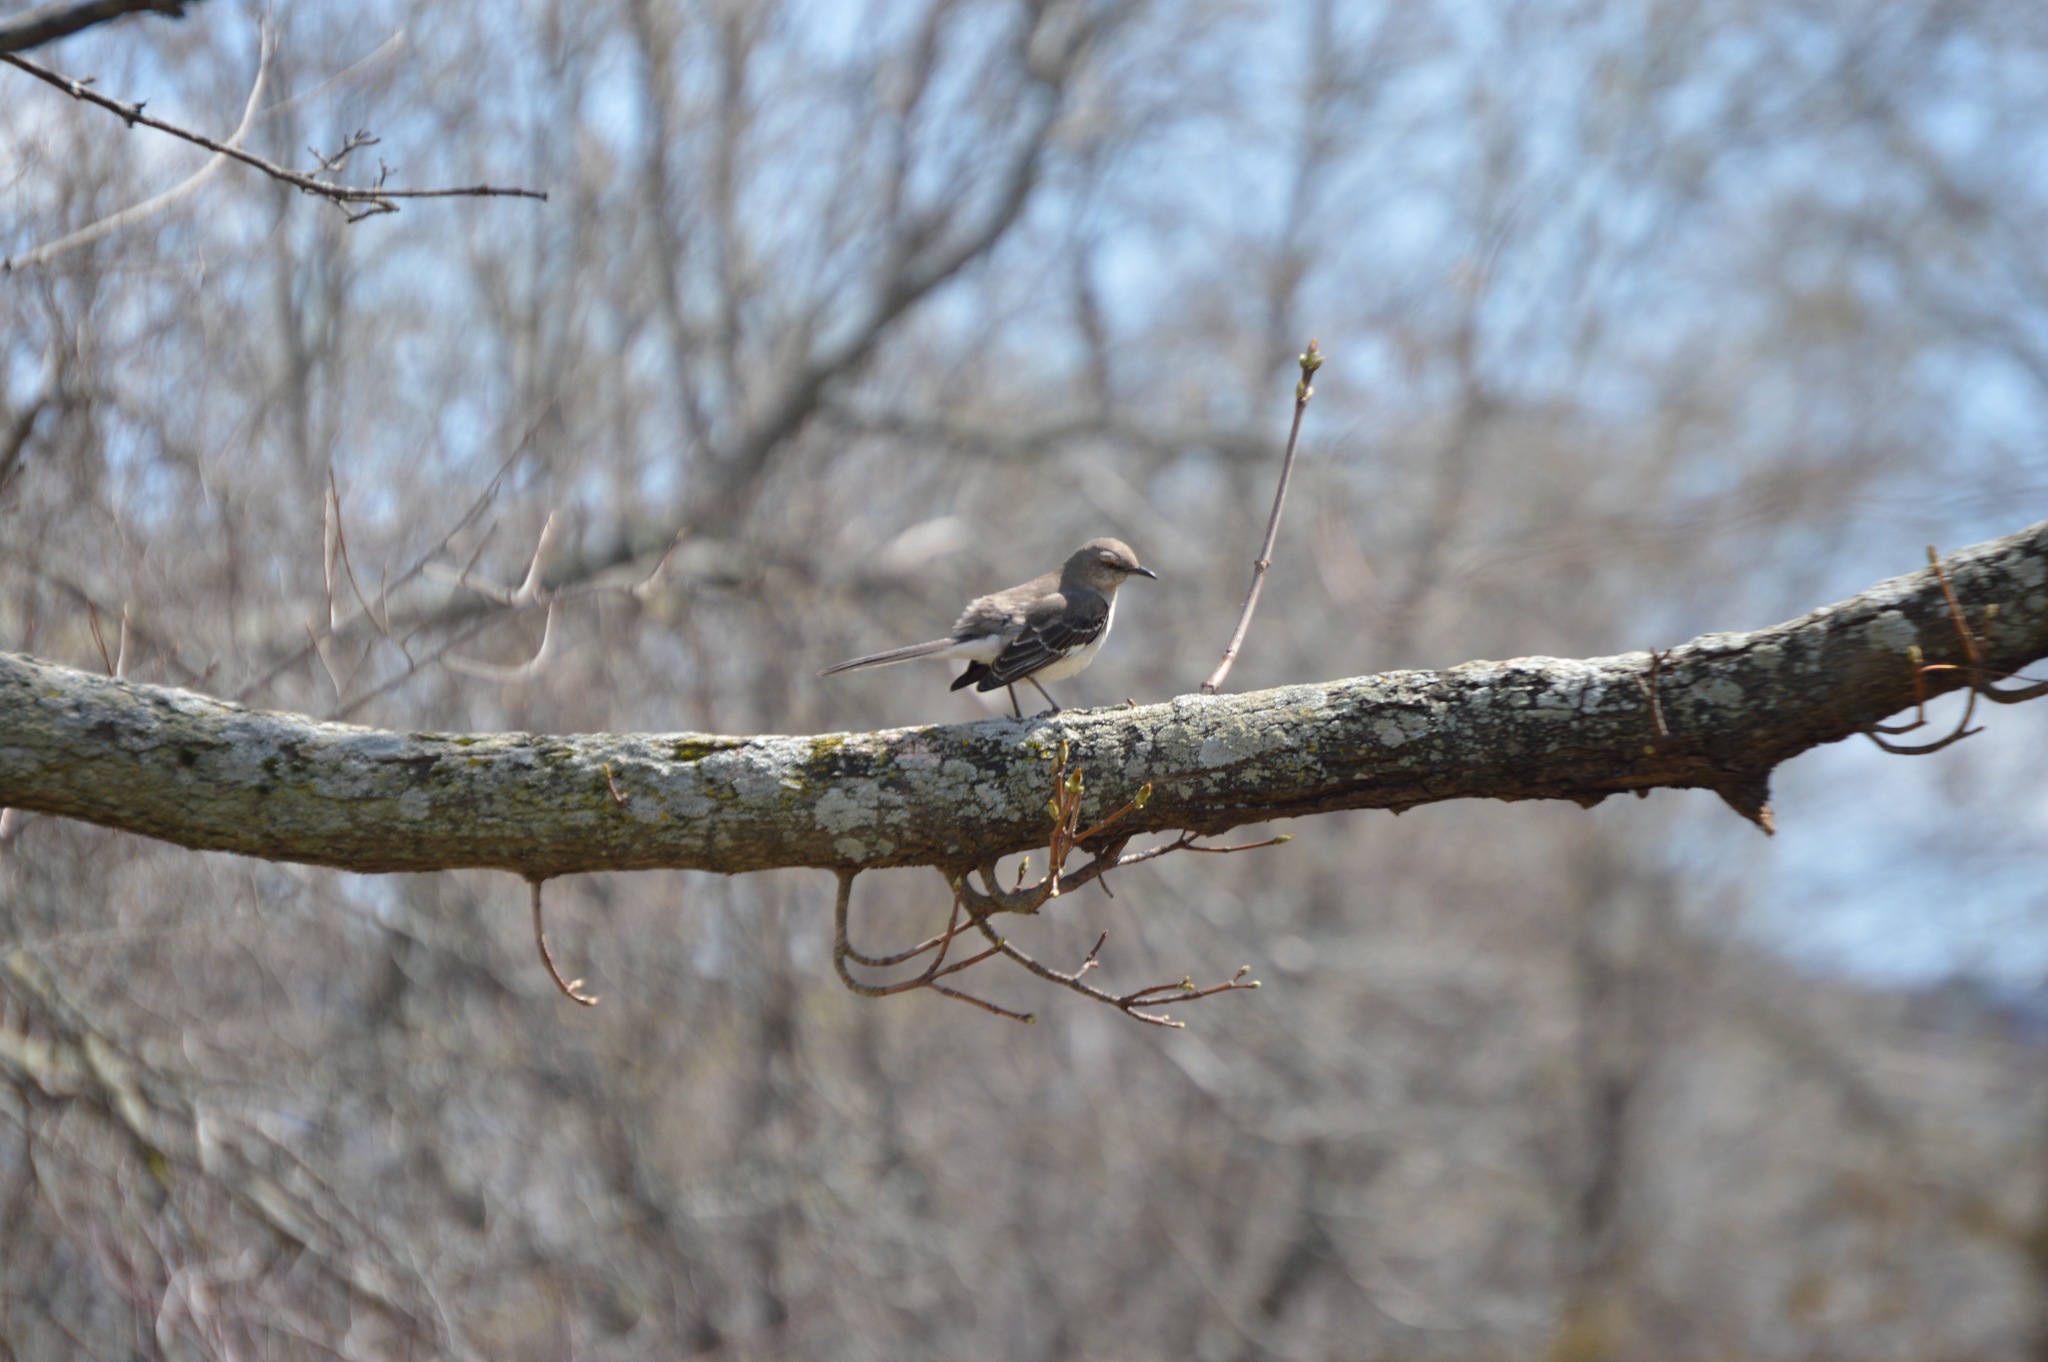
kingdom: Animalia
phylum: Chordata
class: Aves
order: Passeriformes
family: Mimidae
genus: Mimus
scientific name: Mimus polyglottos
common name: Northern mockingbird
